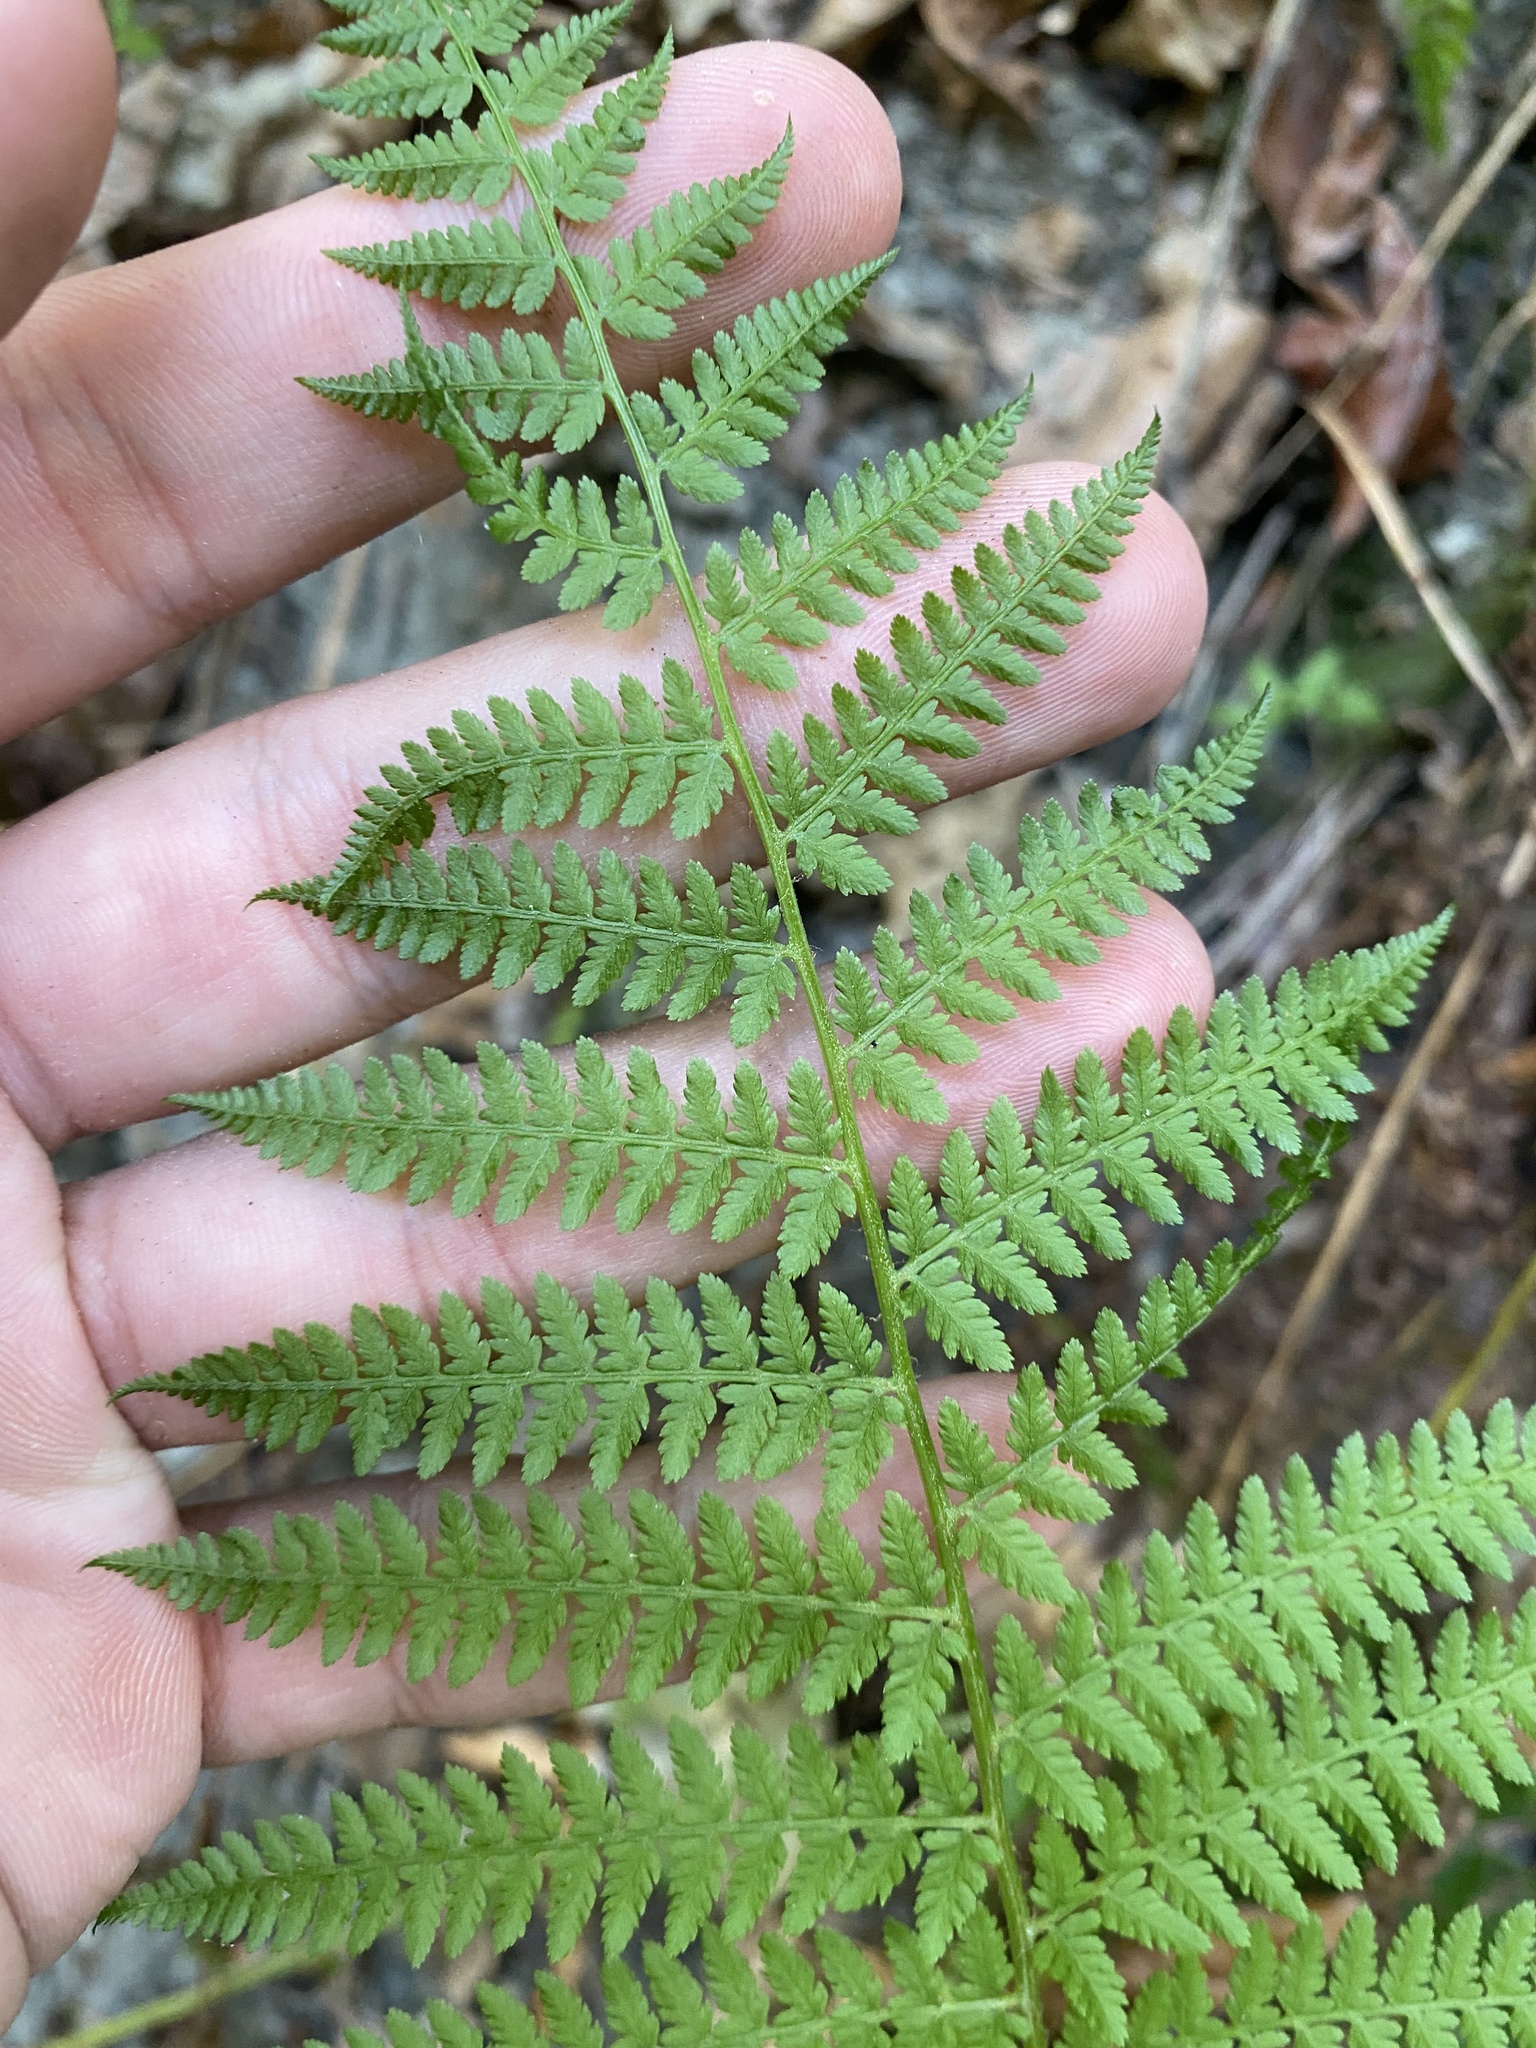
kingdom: Plantae
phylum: Tracheophyta
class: Polypodiopsida
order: Polypodiales
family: Athyriaceae
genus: Athyrium
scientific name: Athyrium filix-femina
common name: Lady fern
